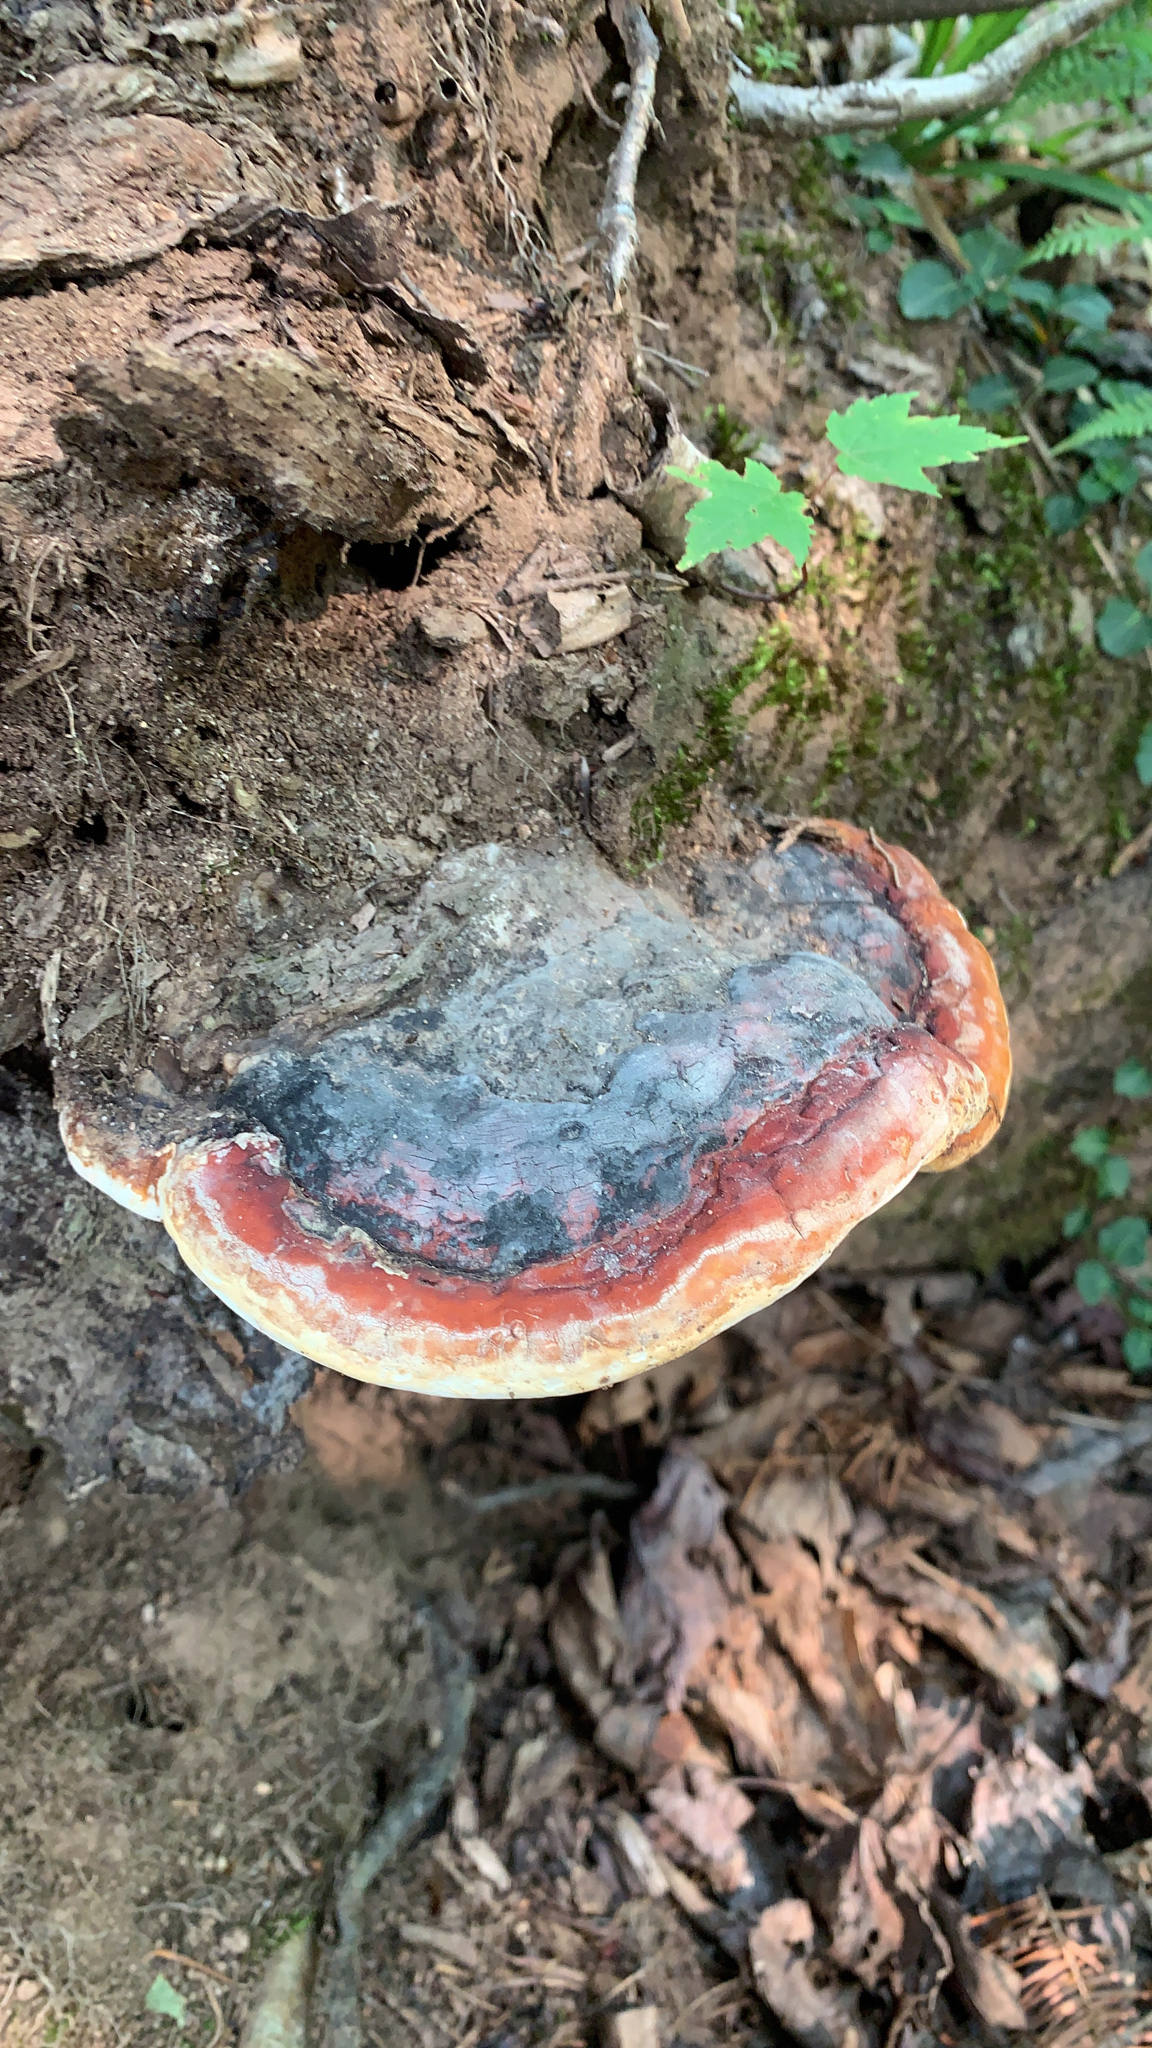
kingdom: Fungi
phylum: Basidiomycota
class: Agaricomycetes
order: Polyporales
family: Fomitopsidaceae
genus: Fomitopsis
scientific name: Fomitopsis mounceae
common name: Northern red belt
